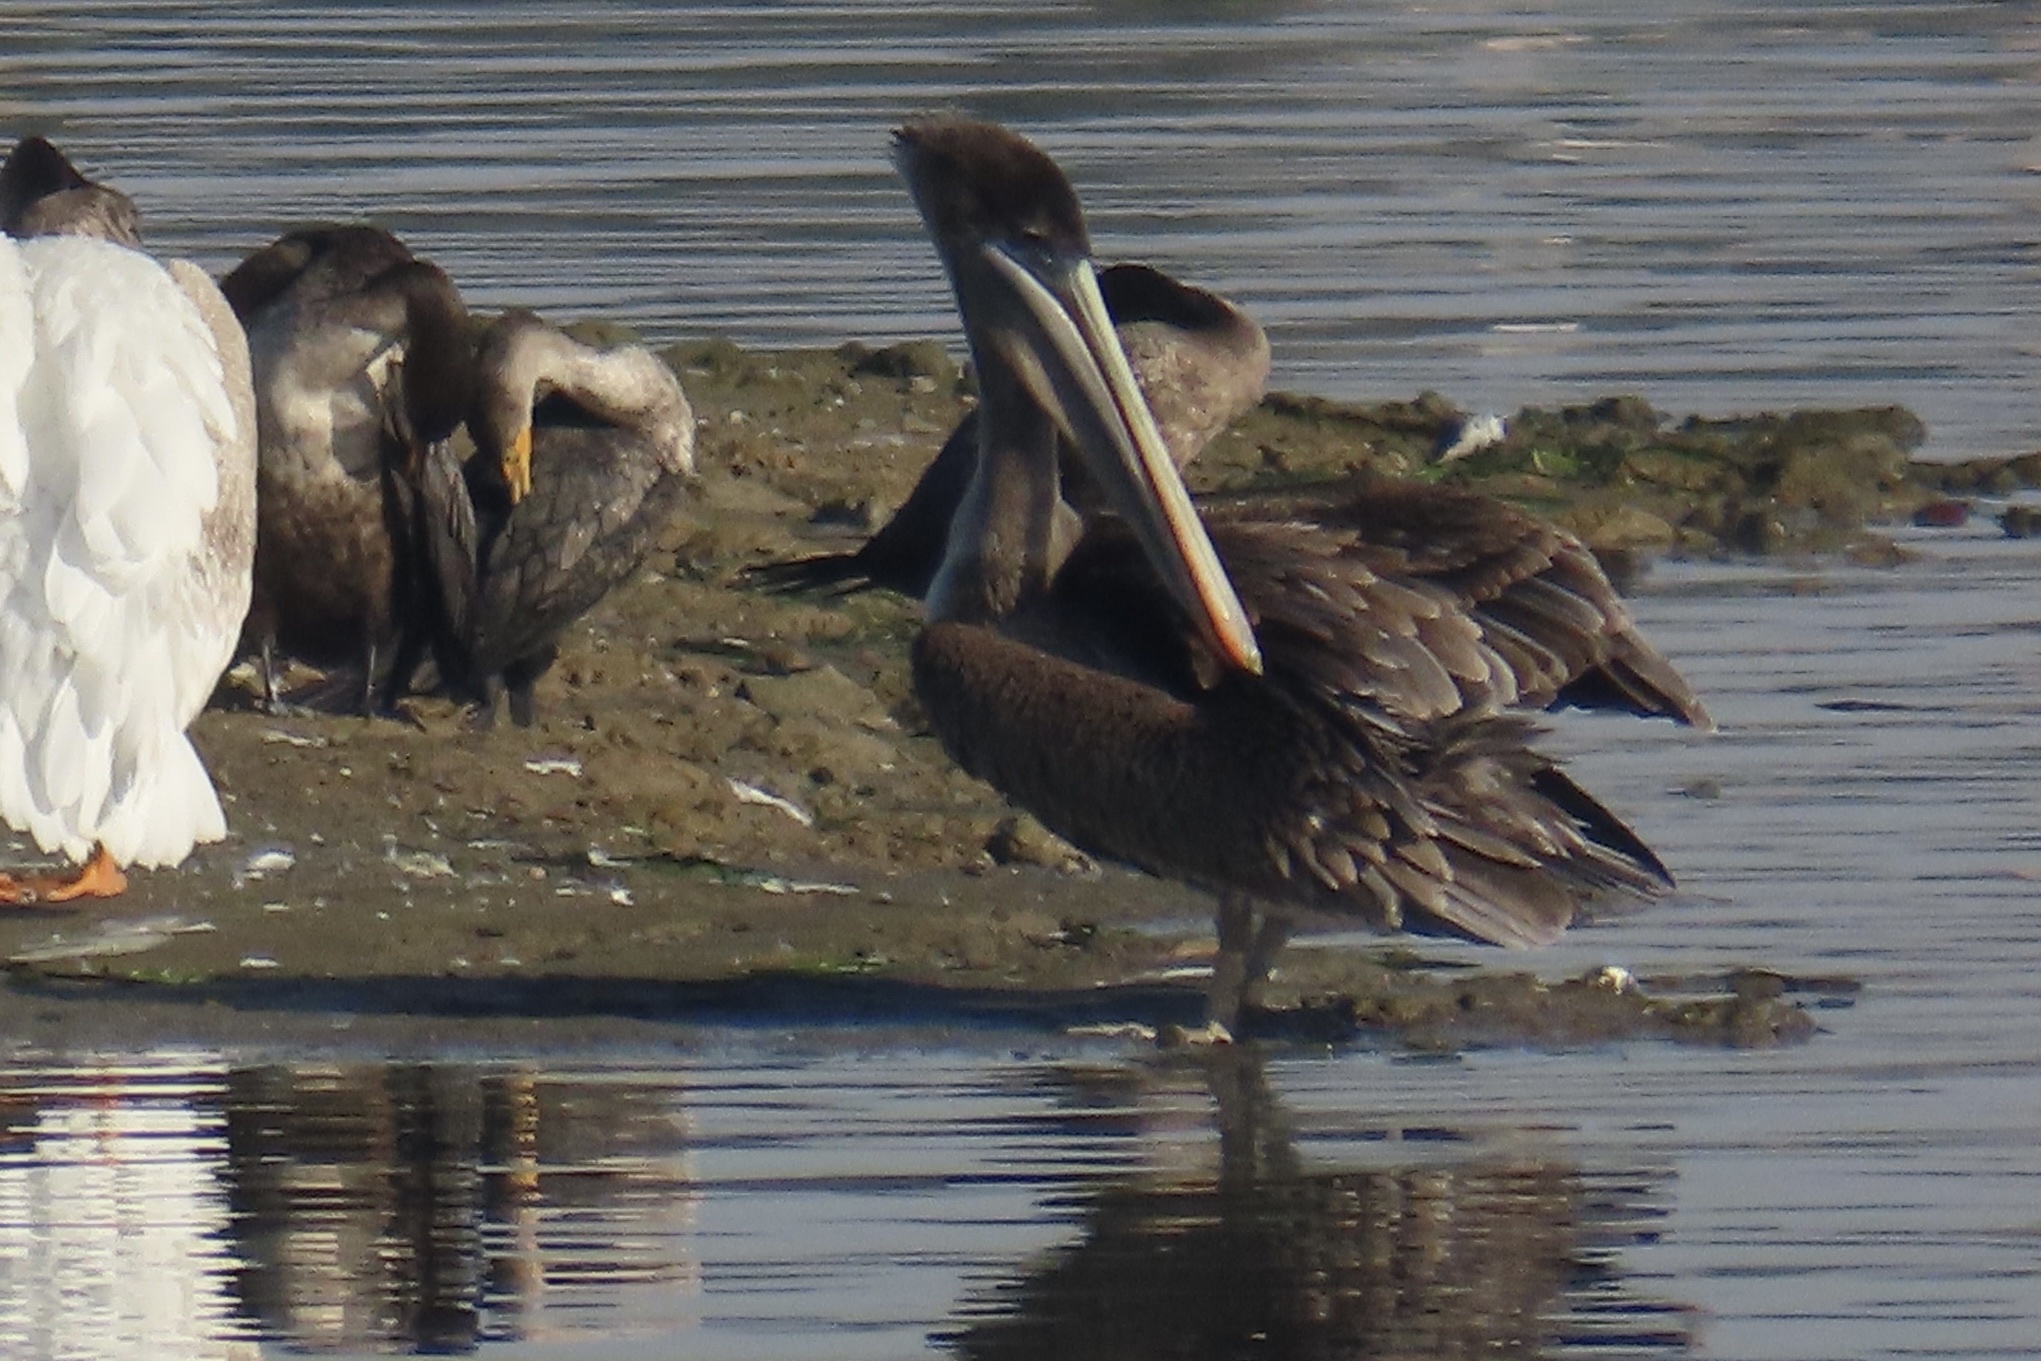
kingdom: Animalia
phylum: Chordata
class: Aves
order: Pelecaniformes
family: Pelecanidae
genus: Pelecanus
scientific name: Pelecanus occidentalis
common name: Brown pelican
